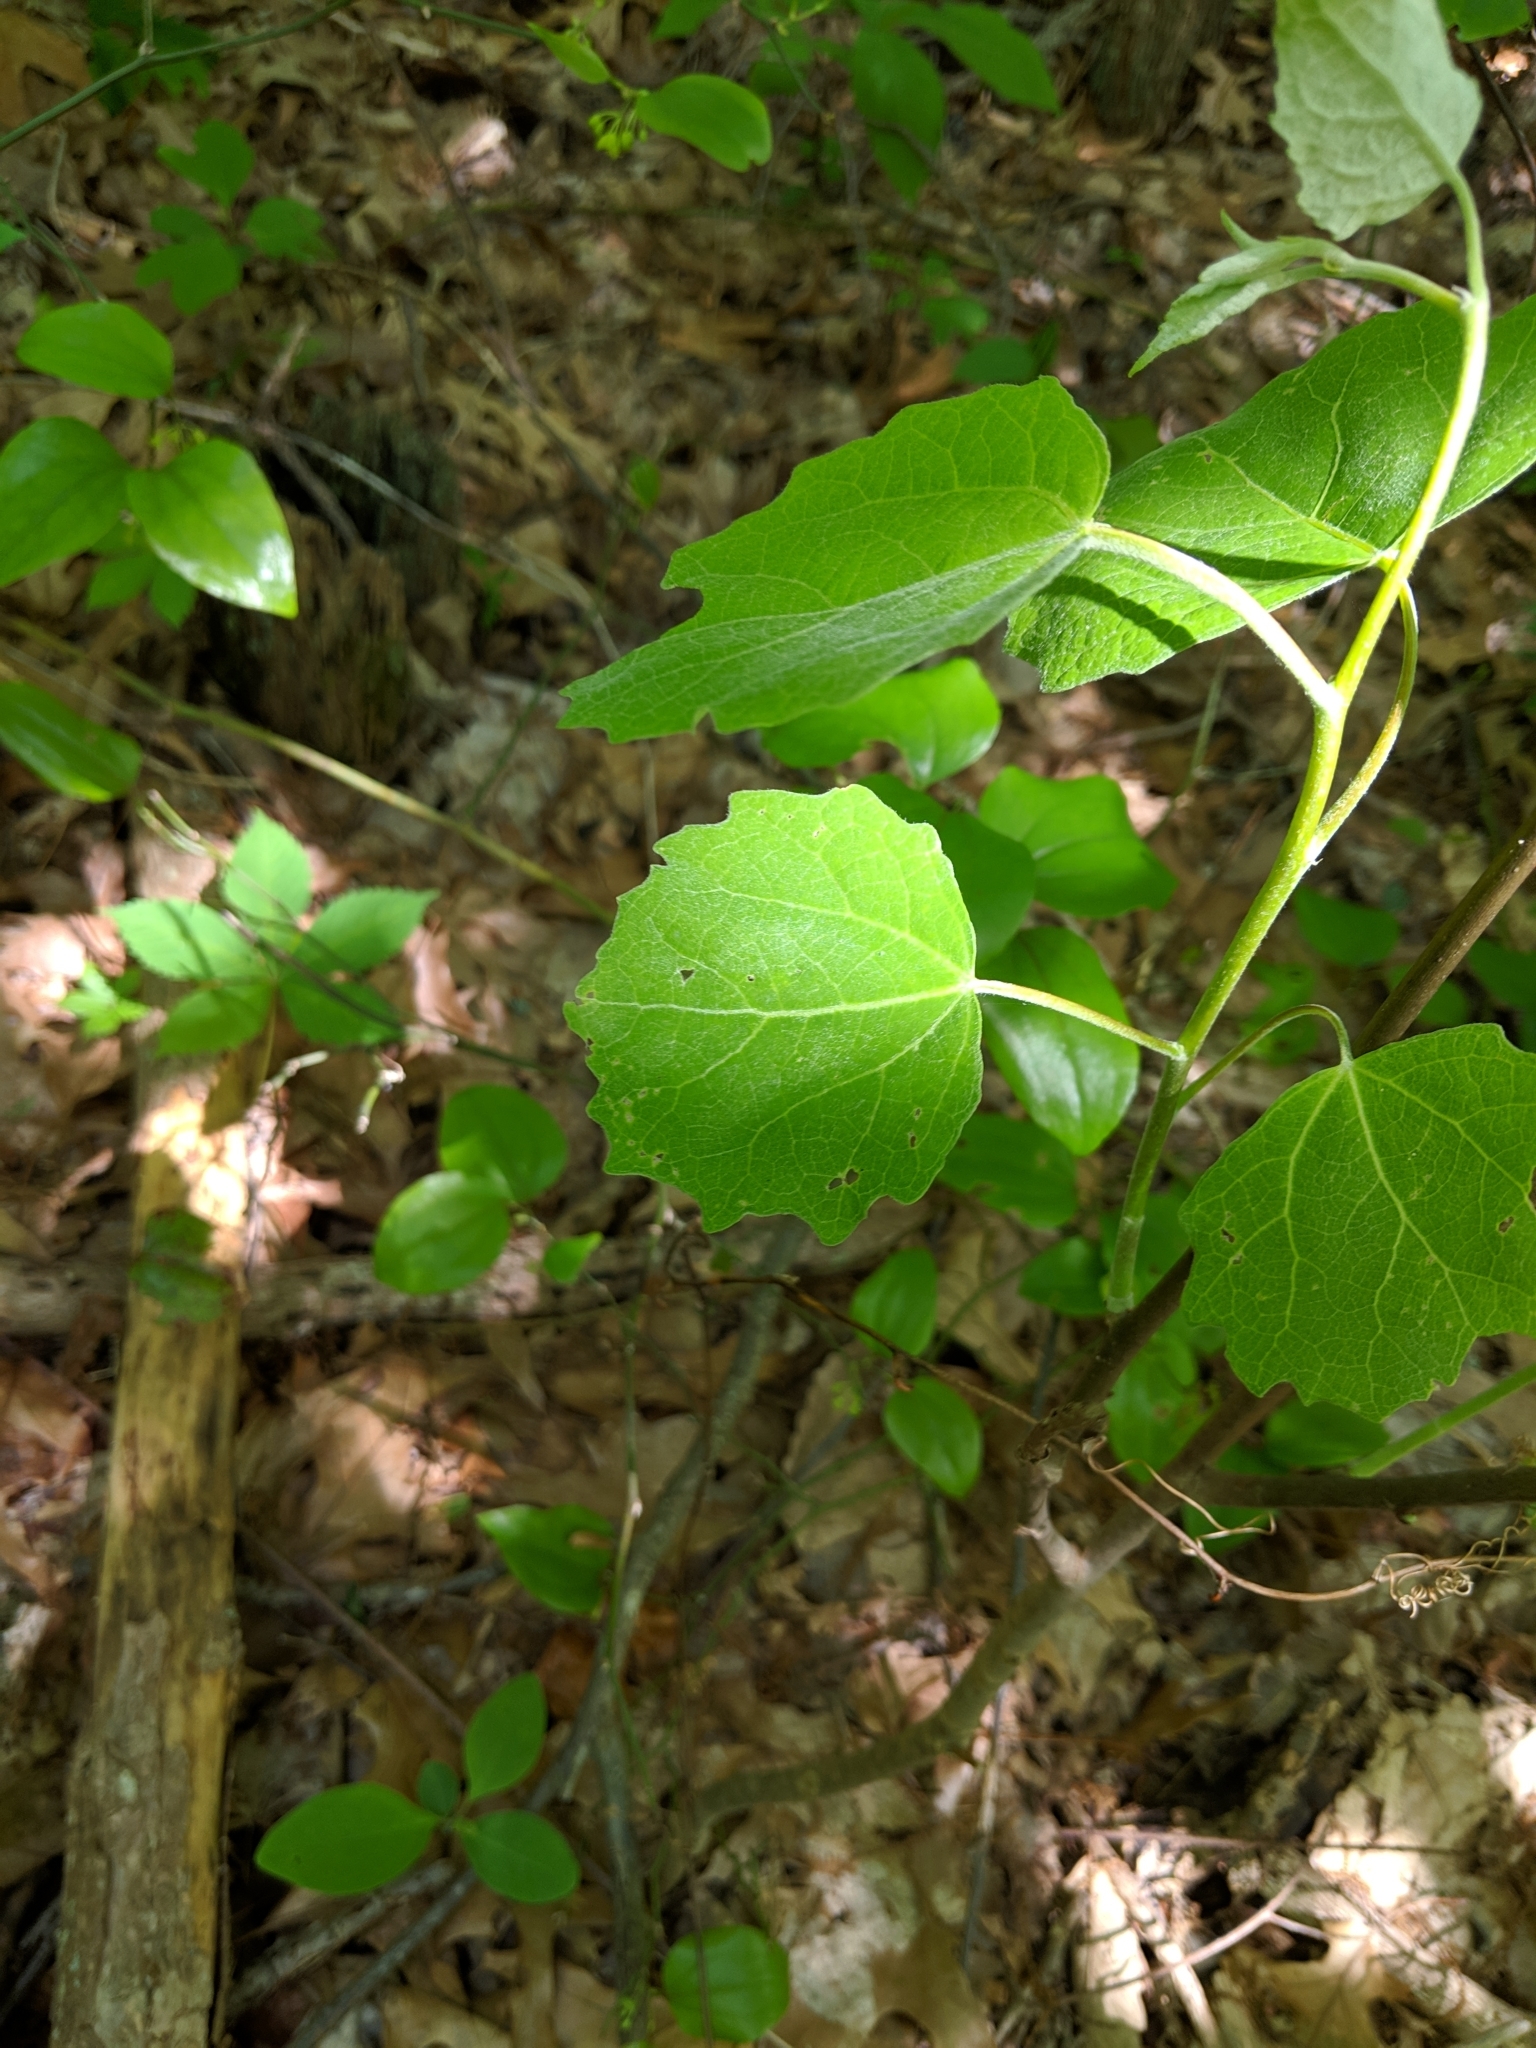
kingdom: Plantae
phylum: Tracheophyta
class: Magnoliopsida
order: Malpighiales
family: Salicaceae
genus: Populus
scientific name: Populus grandidentata
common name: Bigtooth aspen
